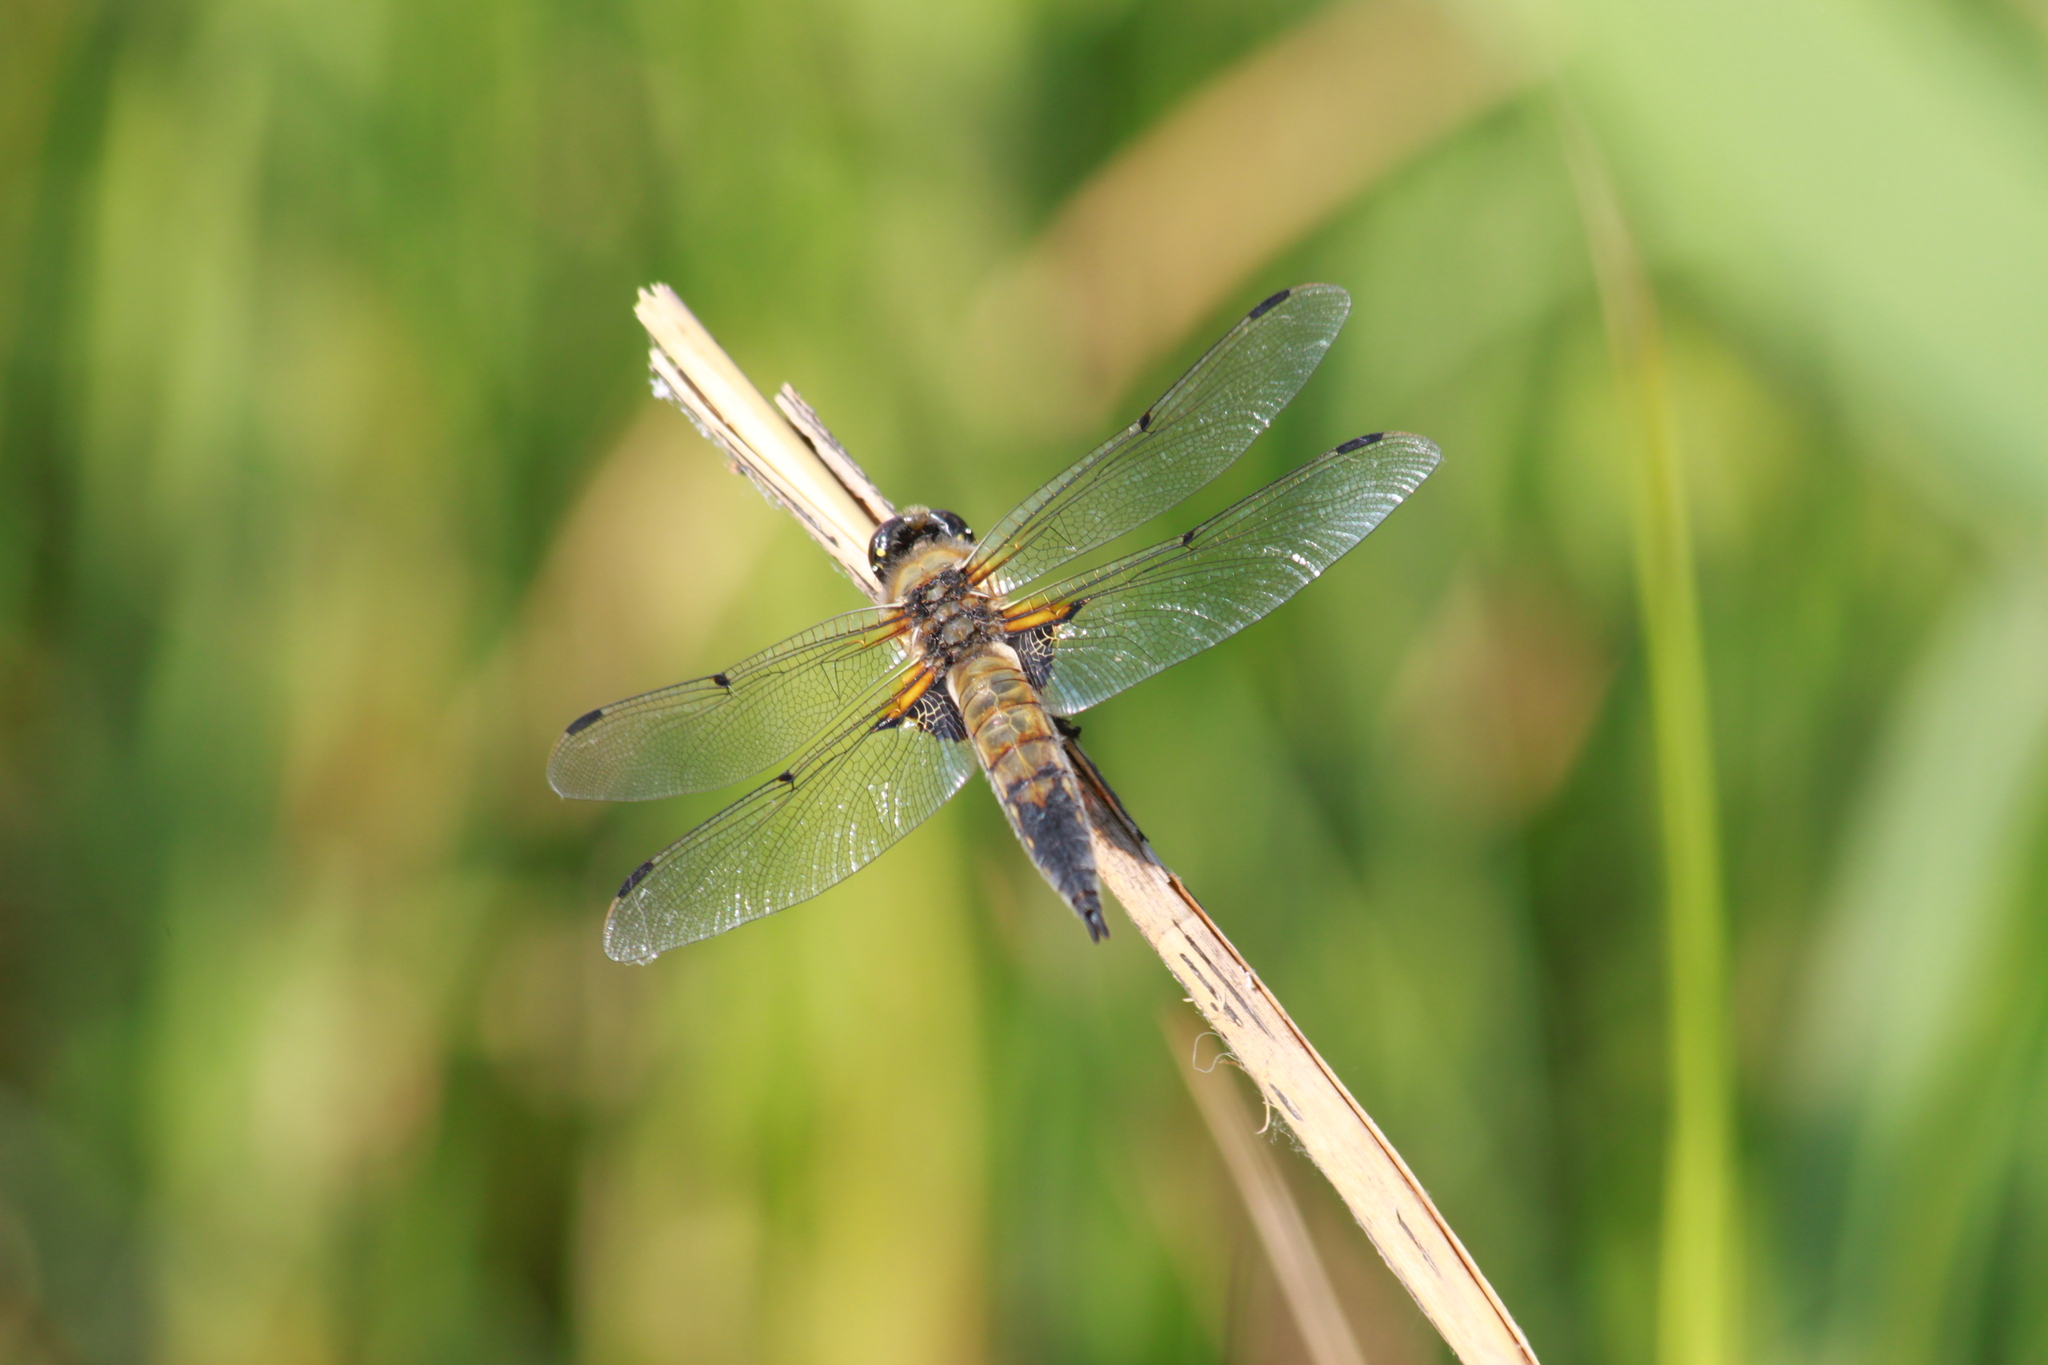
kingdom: Animalia
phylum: Arthropoda
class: Insecta
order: Odonata
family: Libellulidae
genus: Libellula
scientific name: Libellula quadrimaculata
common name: Four-spotted chaser
